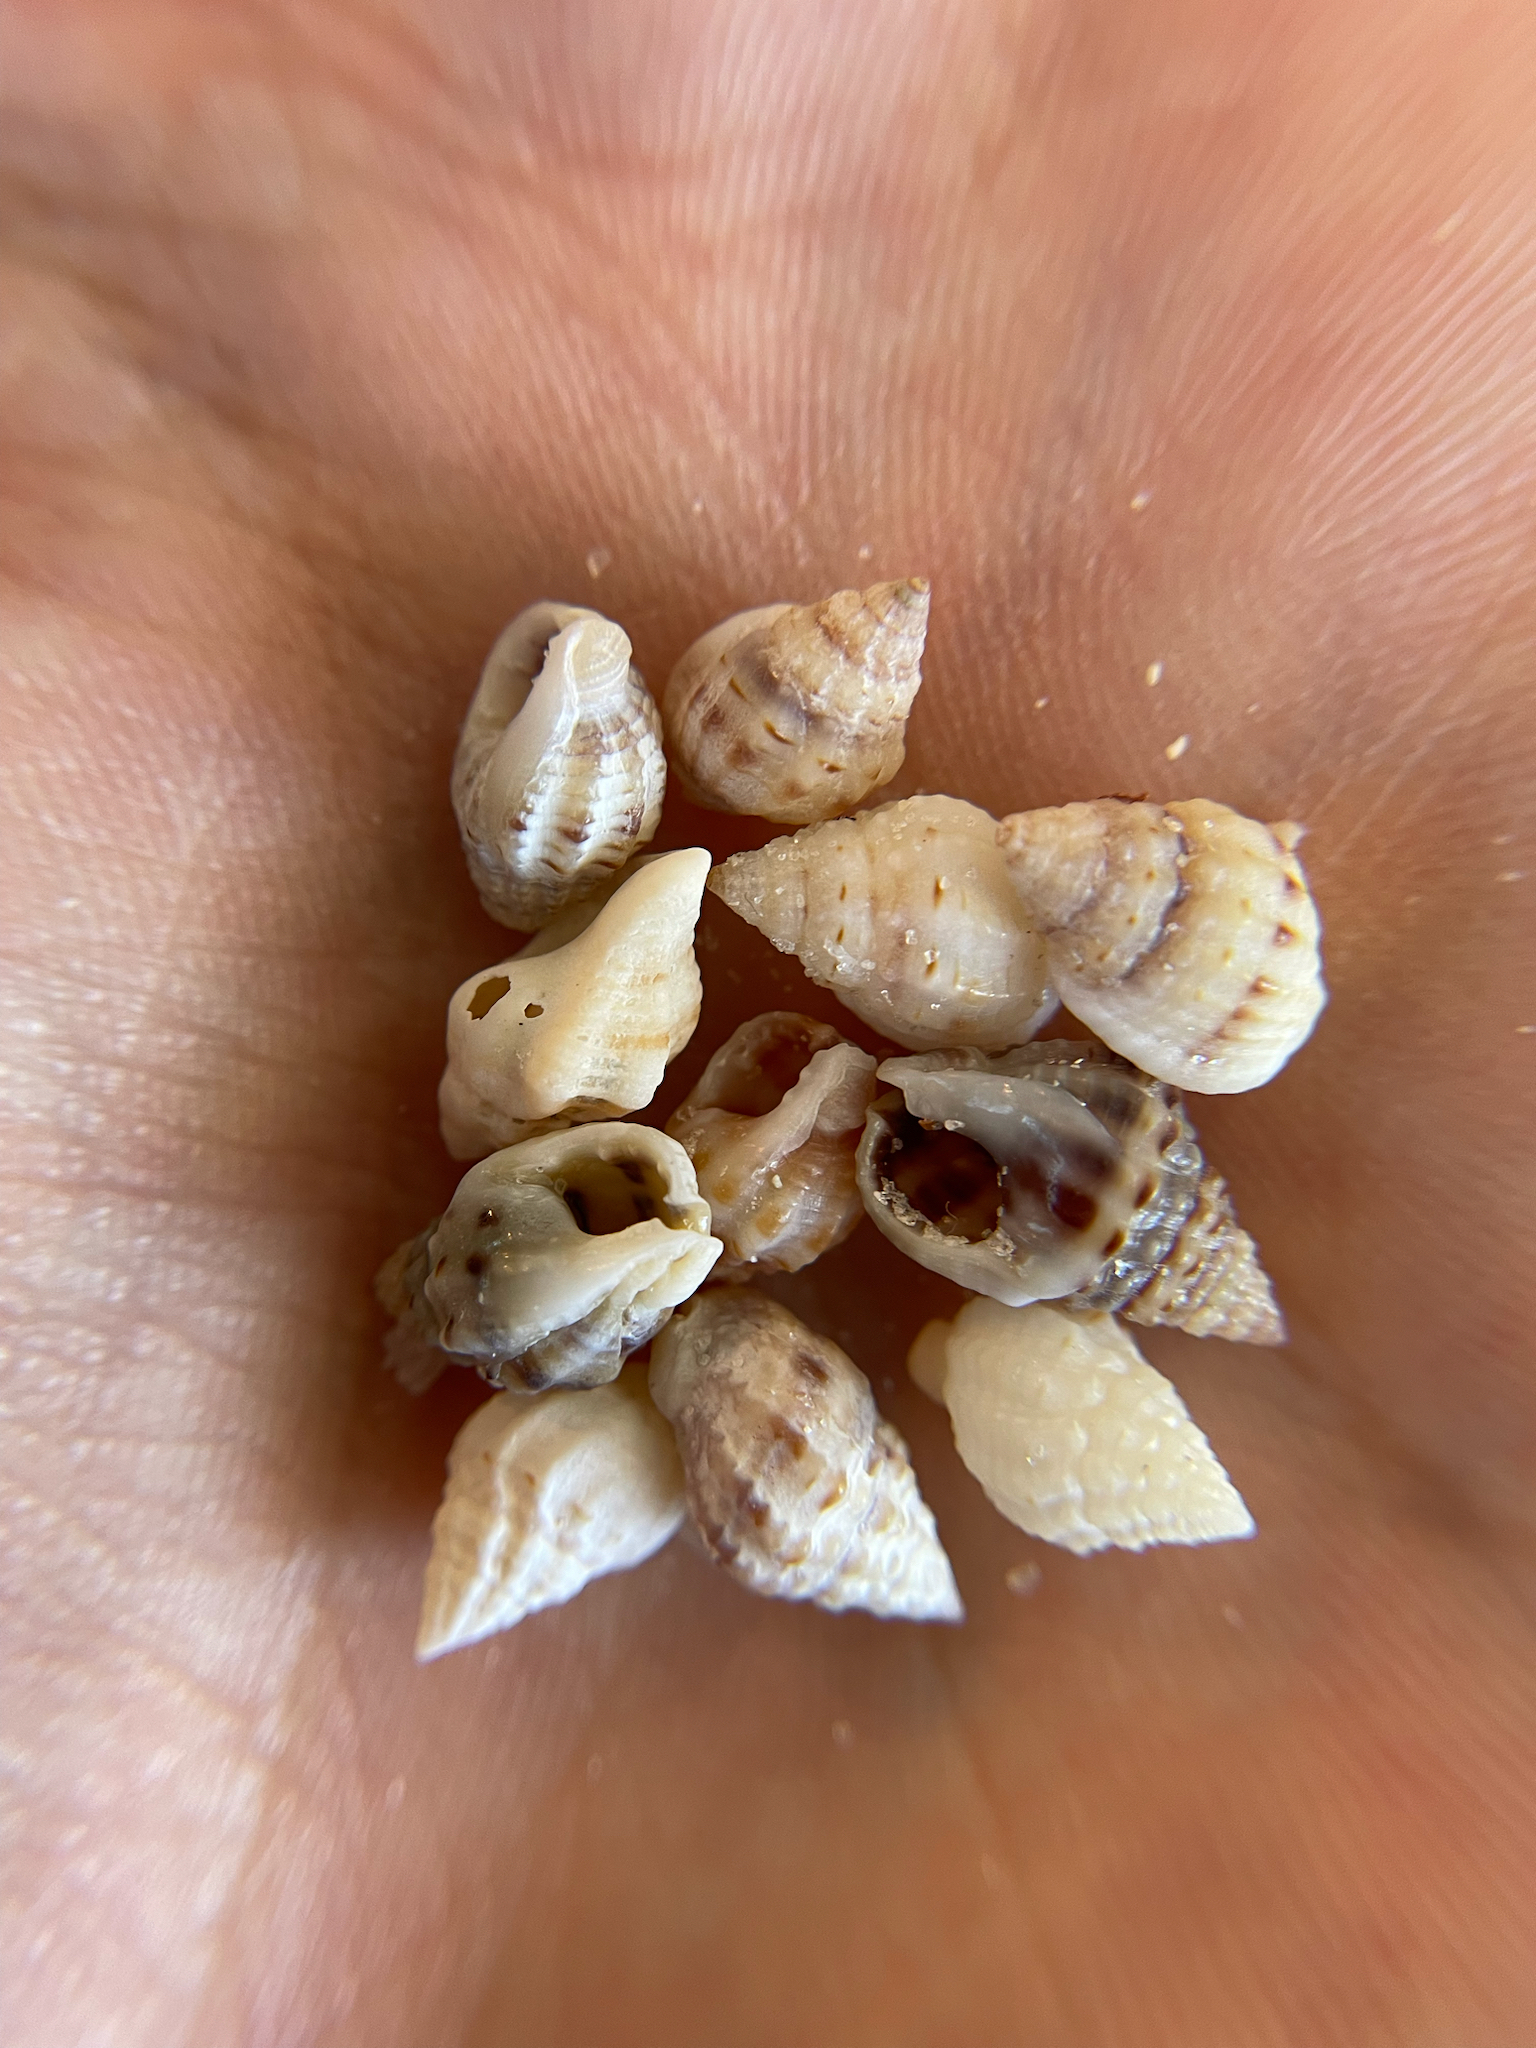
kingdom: Animalia
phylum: Mollusca
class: Gastropoda
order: Neogastropoda
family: Nassariidae
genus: Phrontis
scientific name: Phrontis vibex
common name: Bruised nassa
